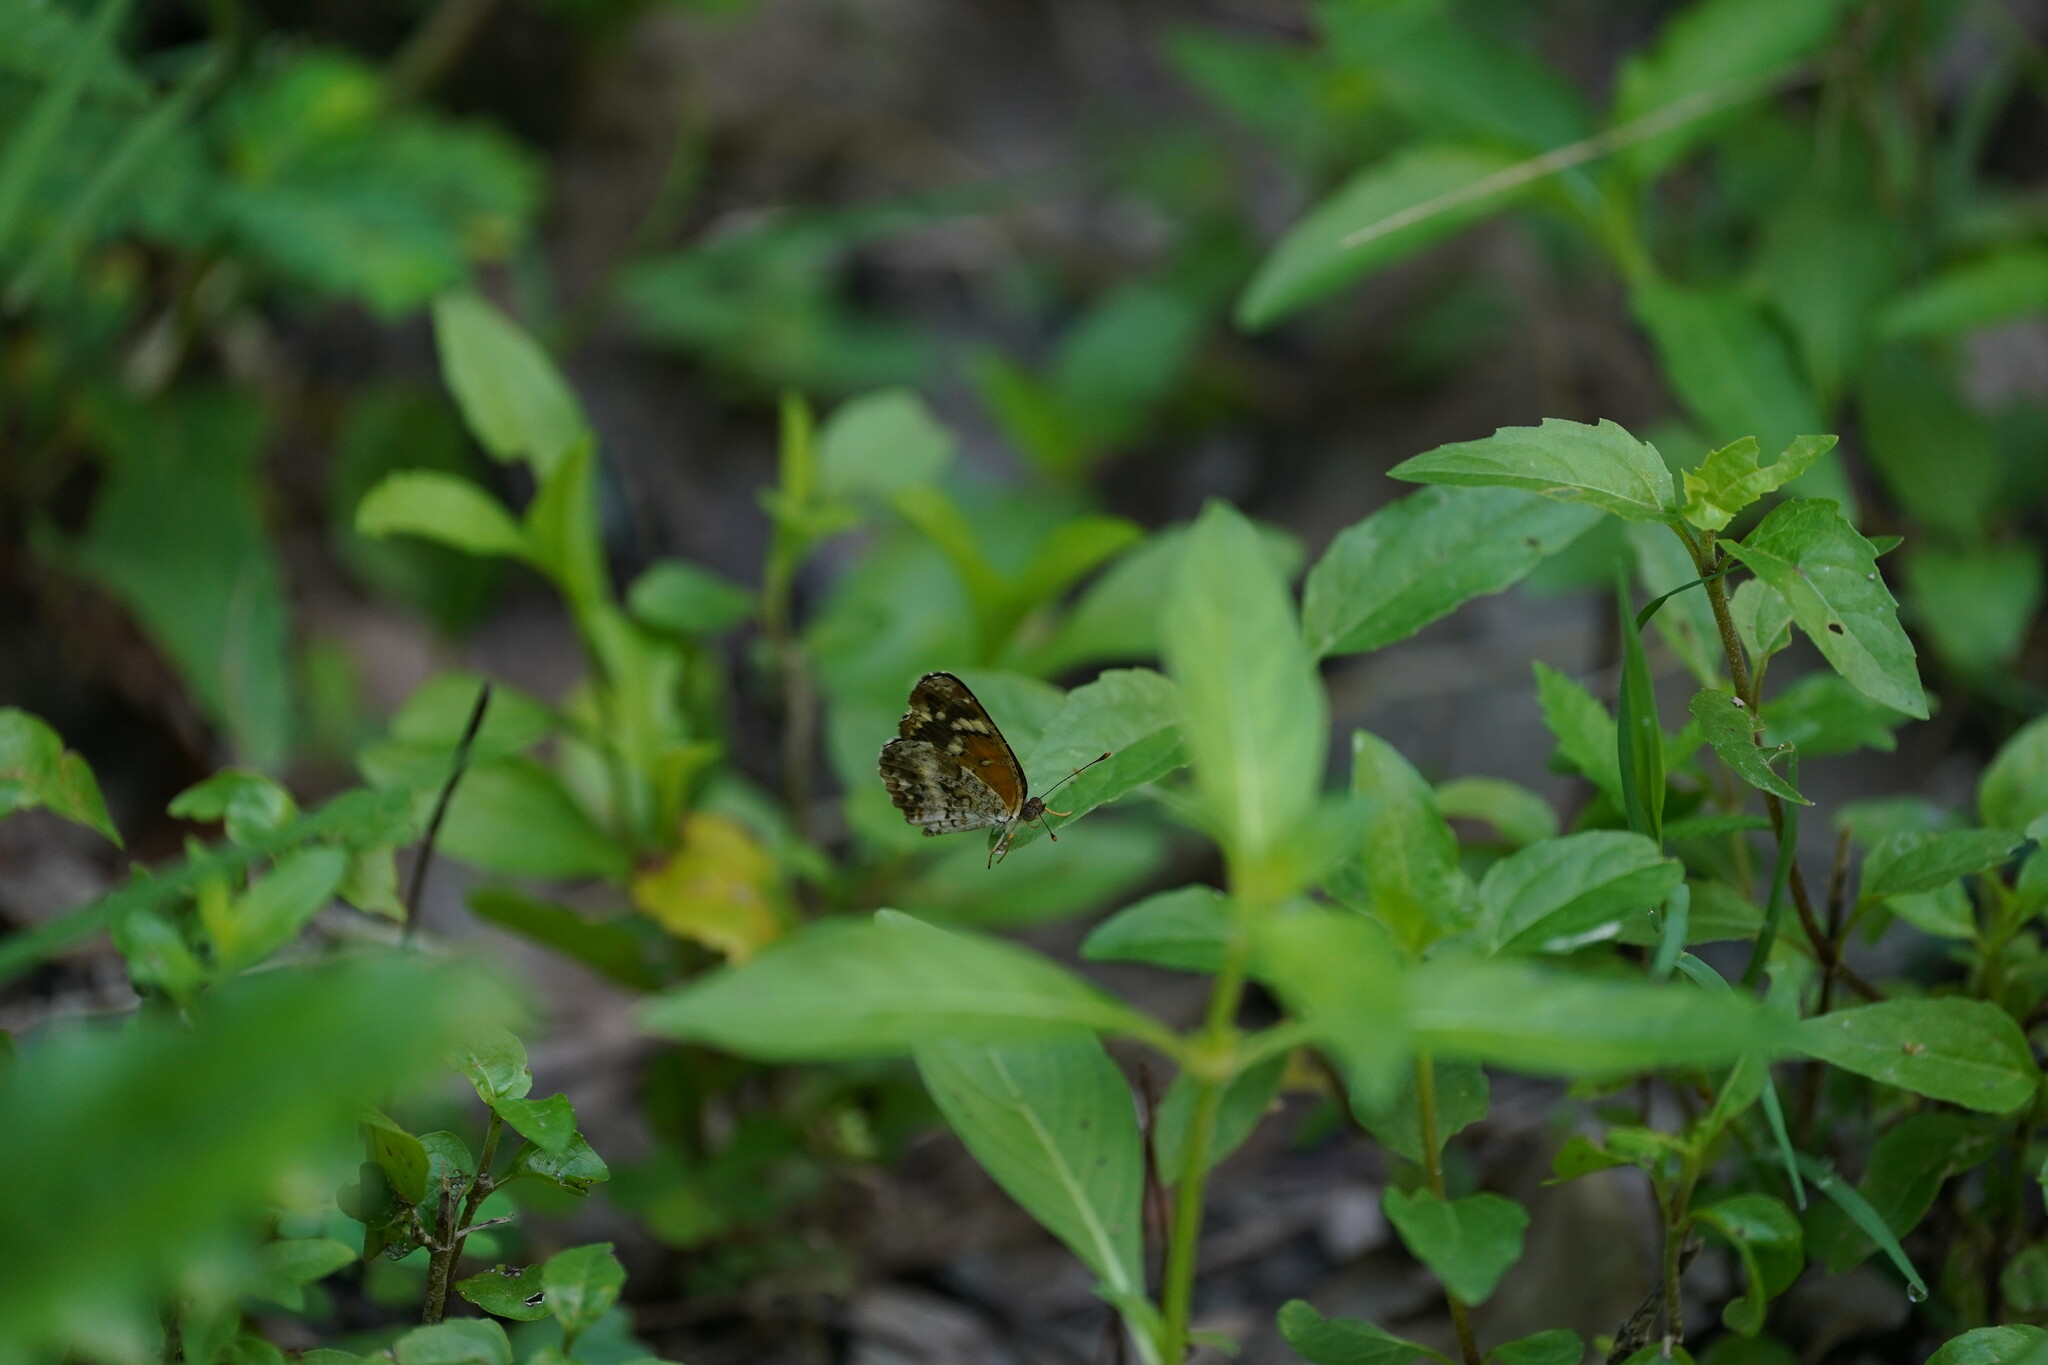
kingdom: Animalia
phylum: Arthropoda
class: Insecta
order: Lepidoptera
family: Nymphalidae
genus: Anthanassa
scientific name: Anthanassa taxana
